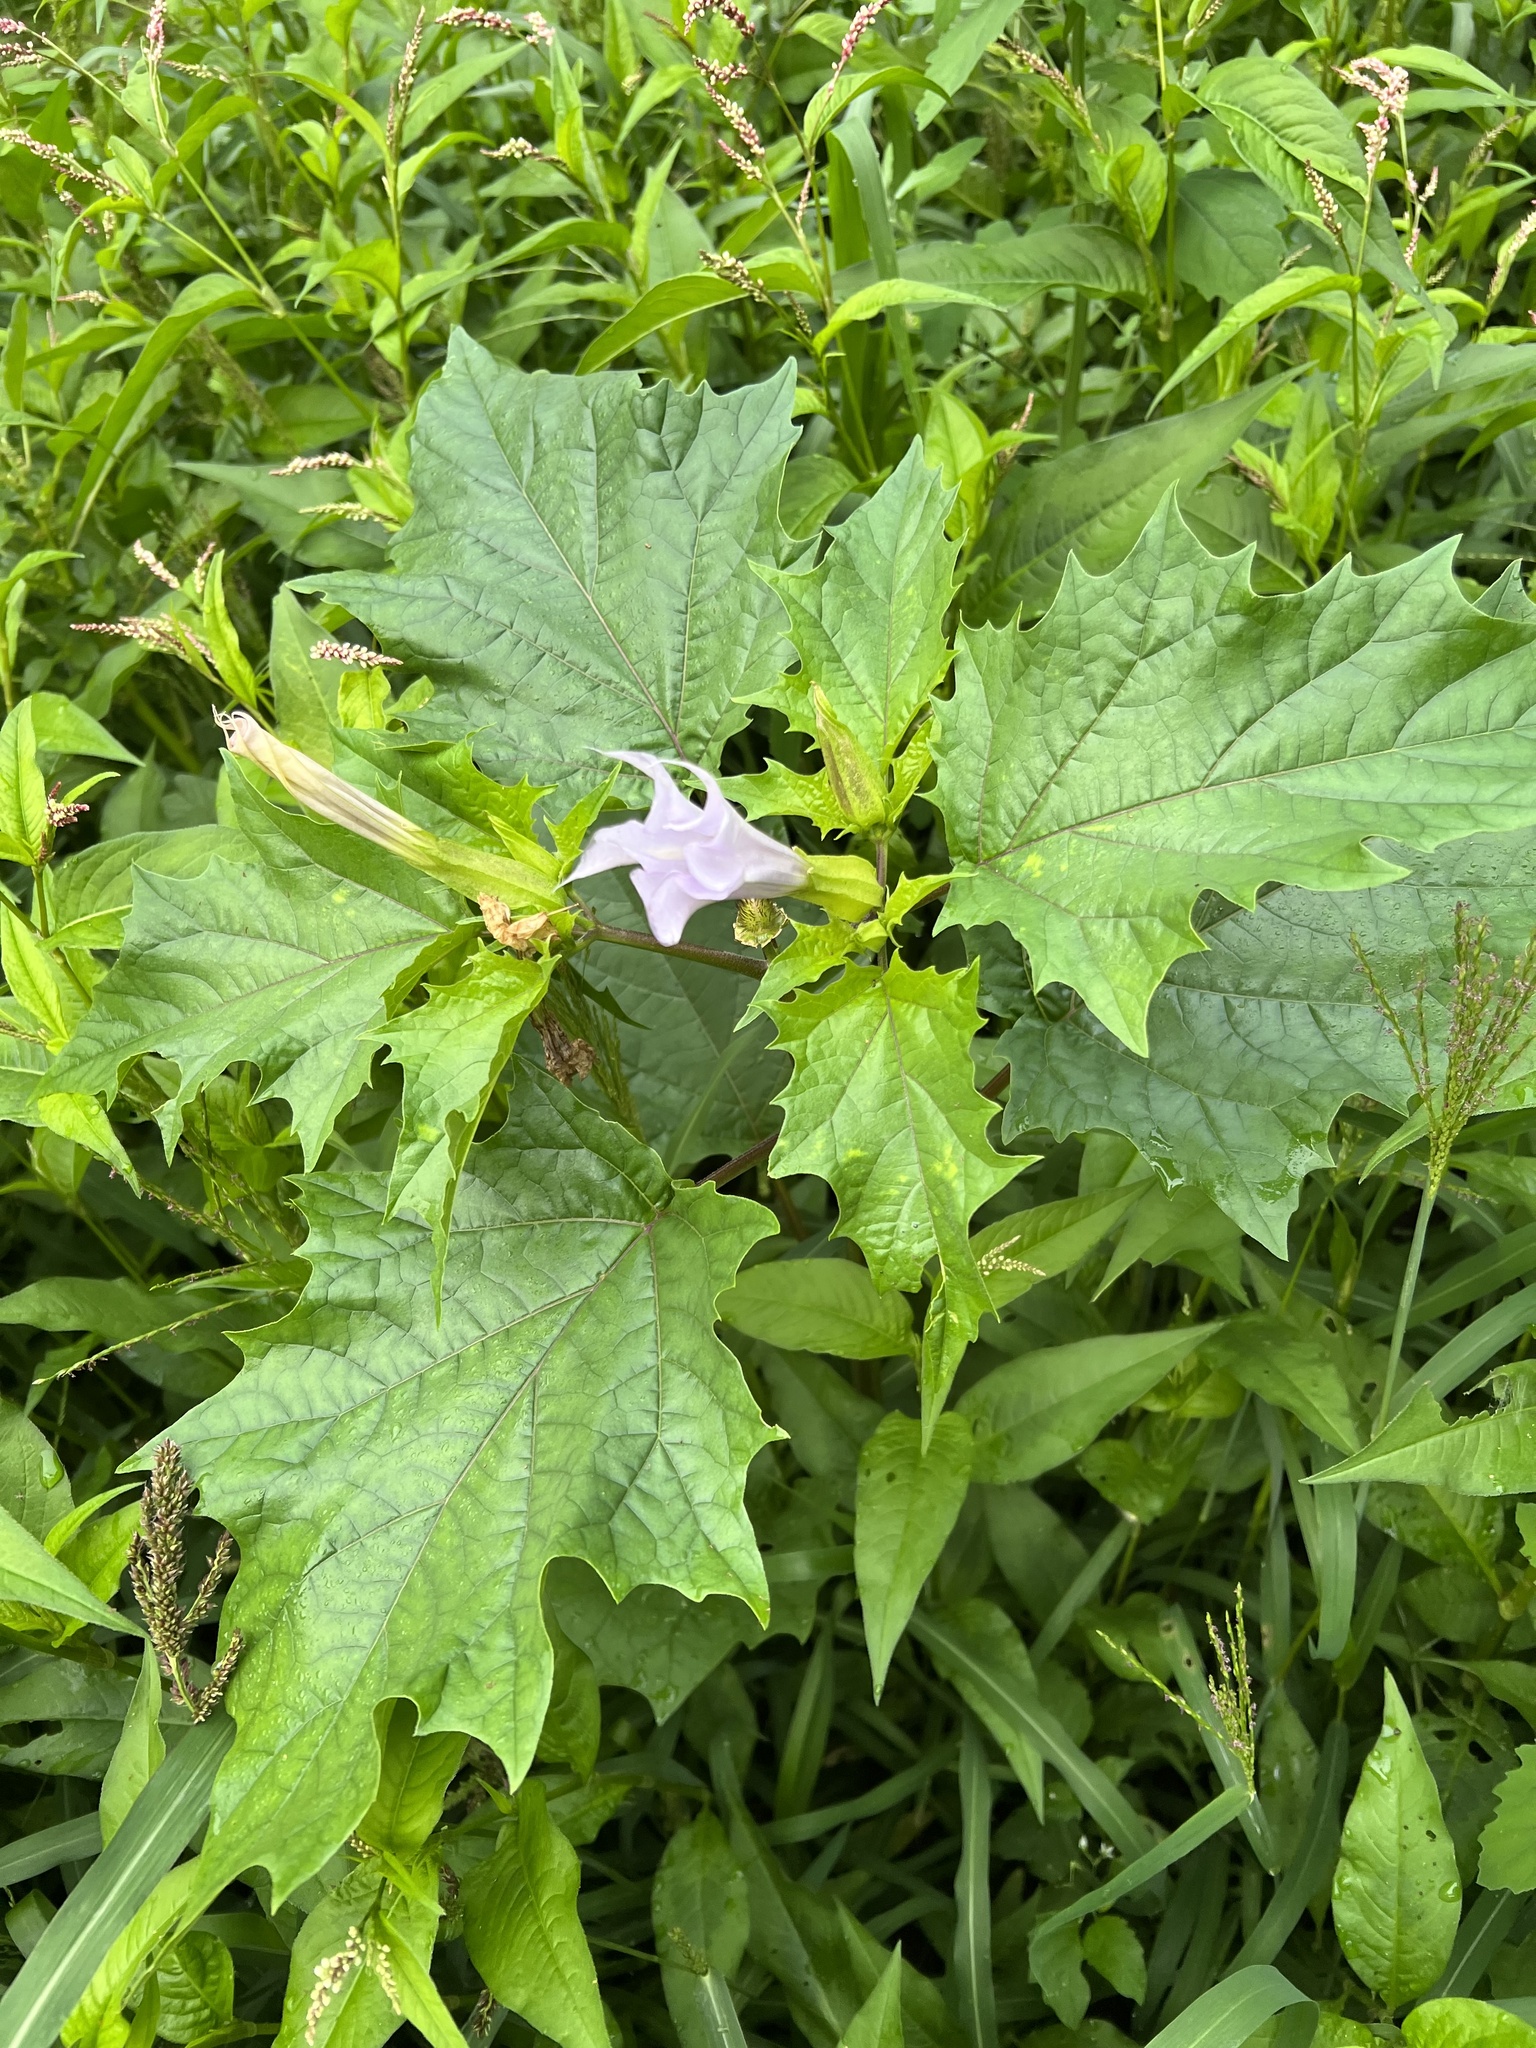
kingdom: Plantae
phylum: Tracheophyta
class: Magnoliopsida
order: Solanales
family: Solanaceae
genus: Datura
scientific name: Datura stramonium
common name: Thorn-apple
